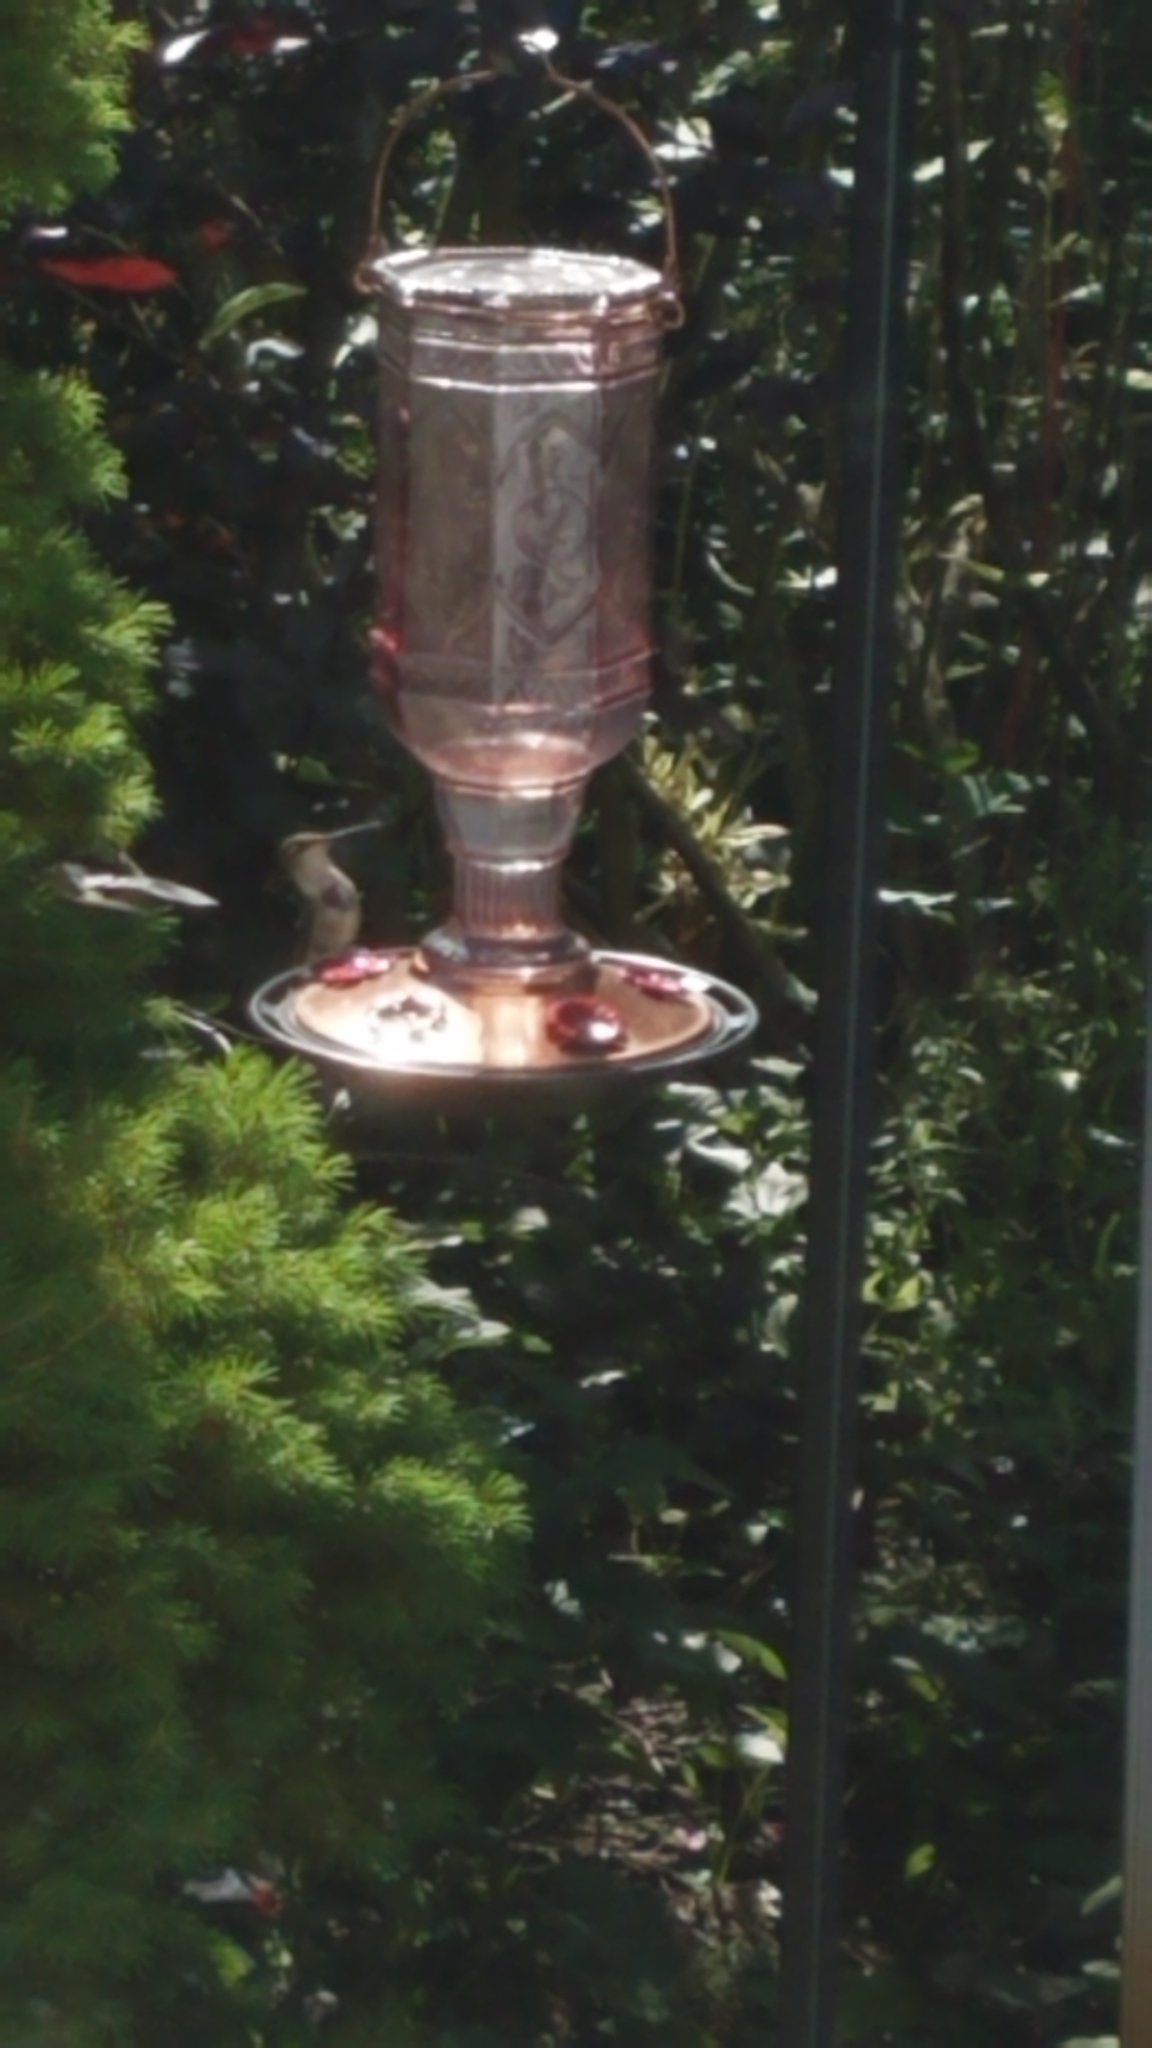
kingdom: Animalia
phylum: Chordata
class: Aves
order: Apodiformes
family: Trochilidae
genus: Archilochus
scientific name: Archilochus colubris
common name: Ruby-throated hummingbird
